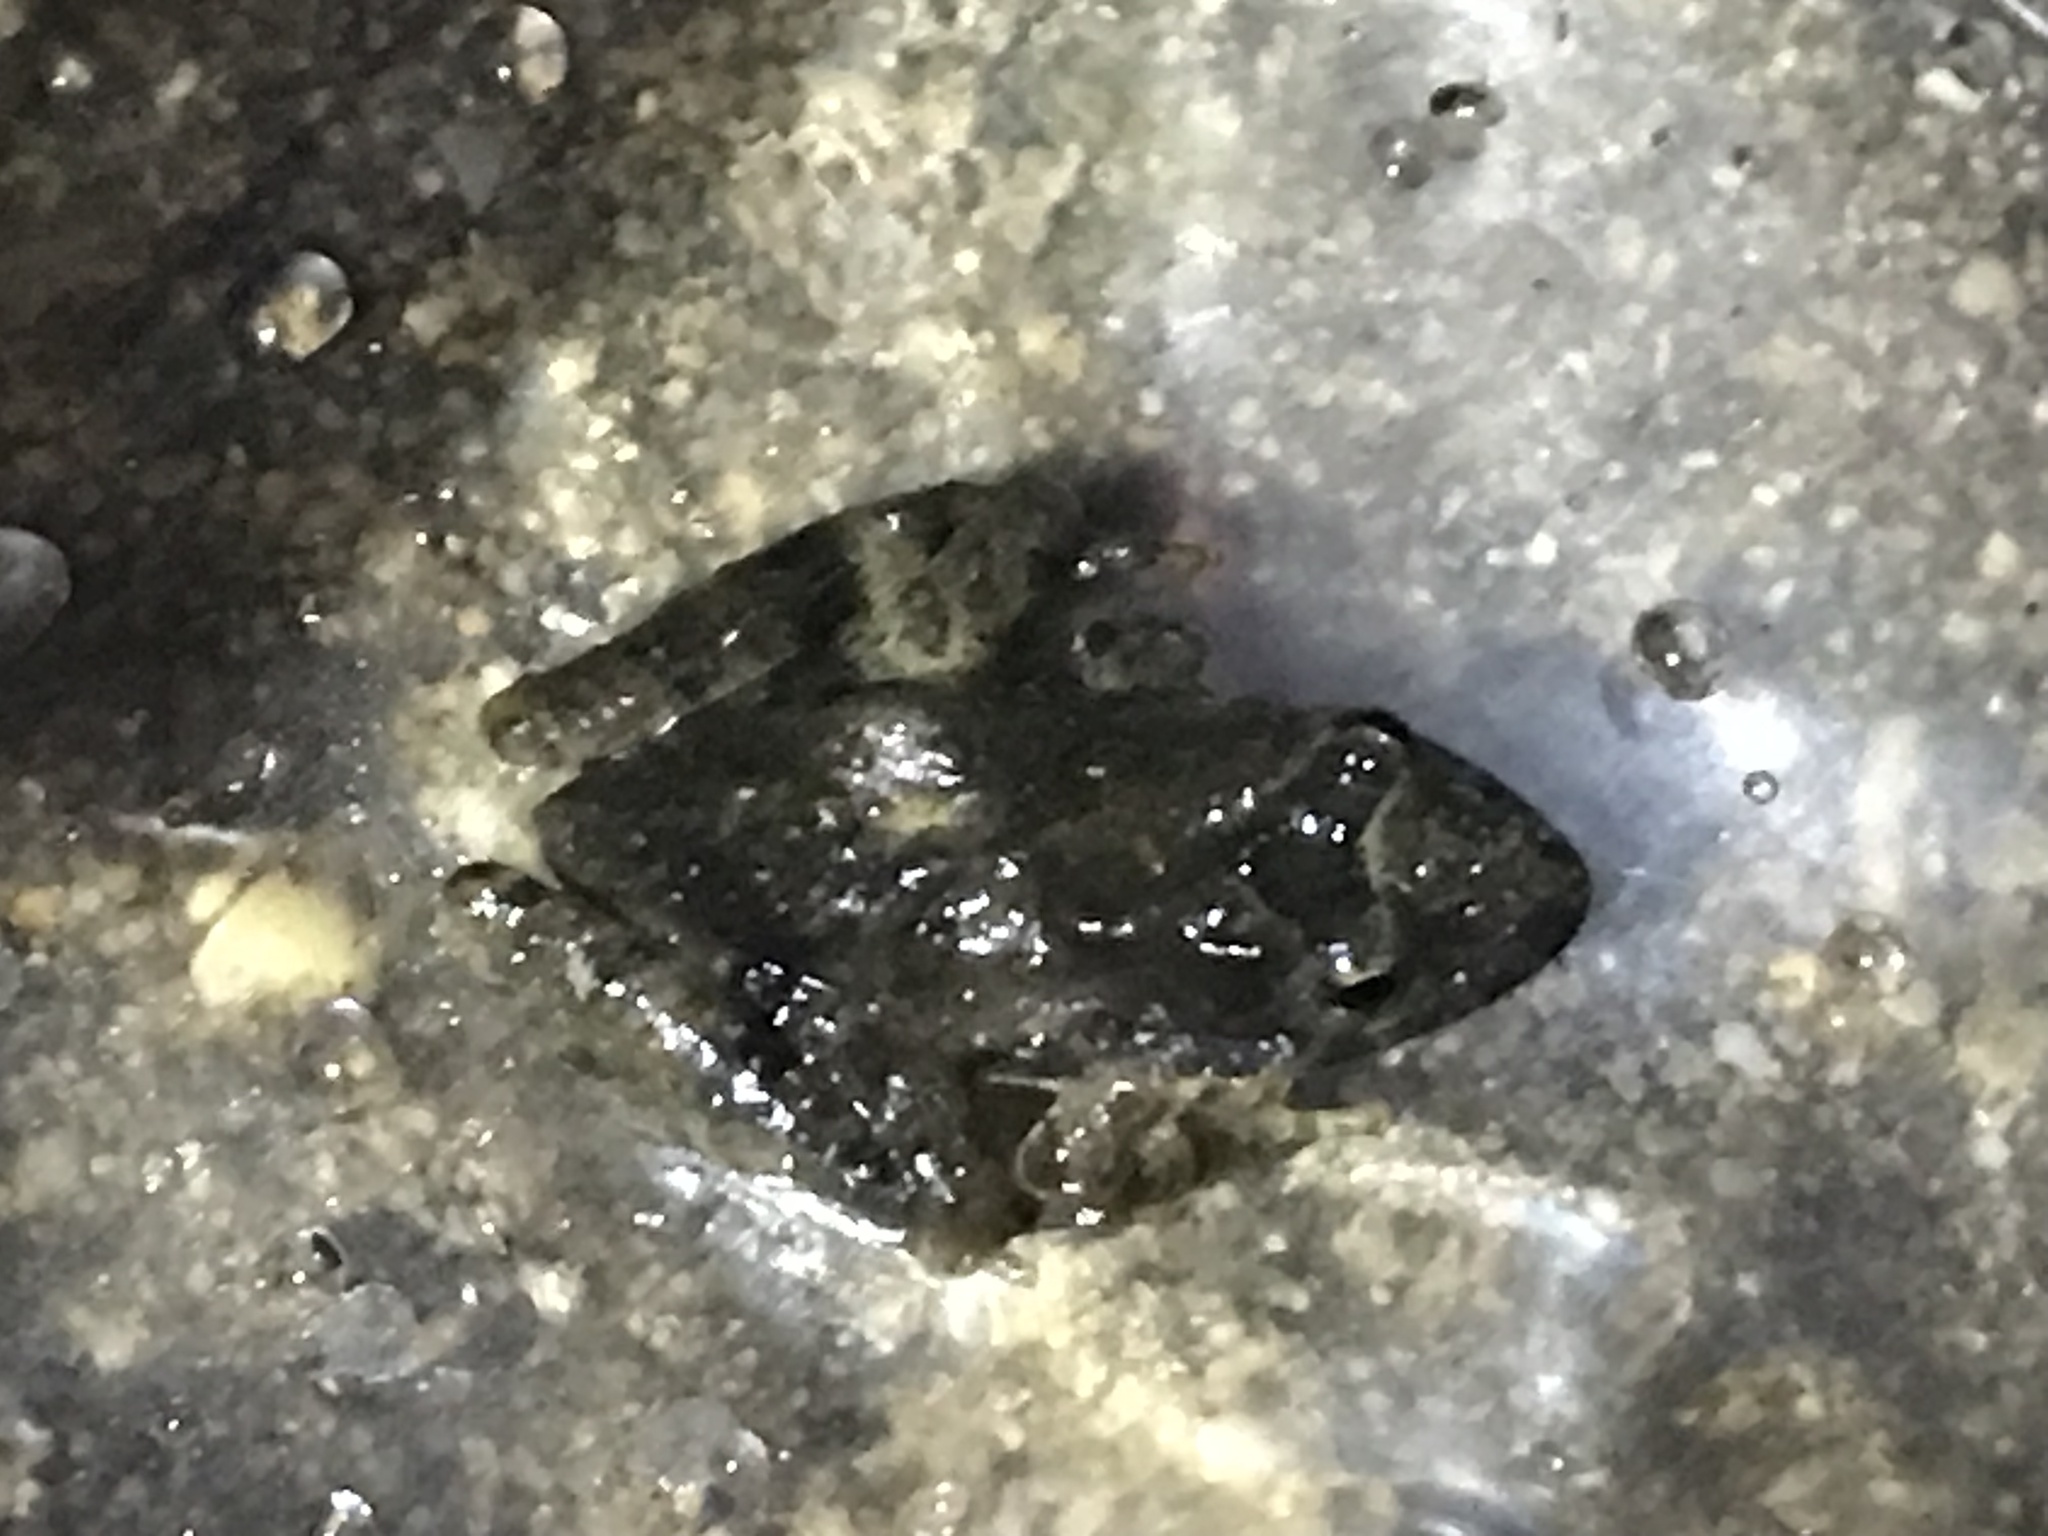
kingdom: Animalia
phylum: Chordata
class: Amphibia
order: Anura
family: Hylidae
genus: Acris
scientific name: Acris blanchardi
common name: Blanchard's cricket frog
